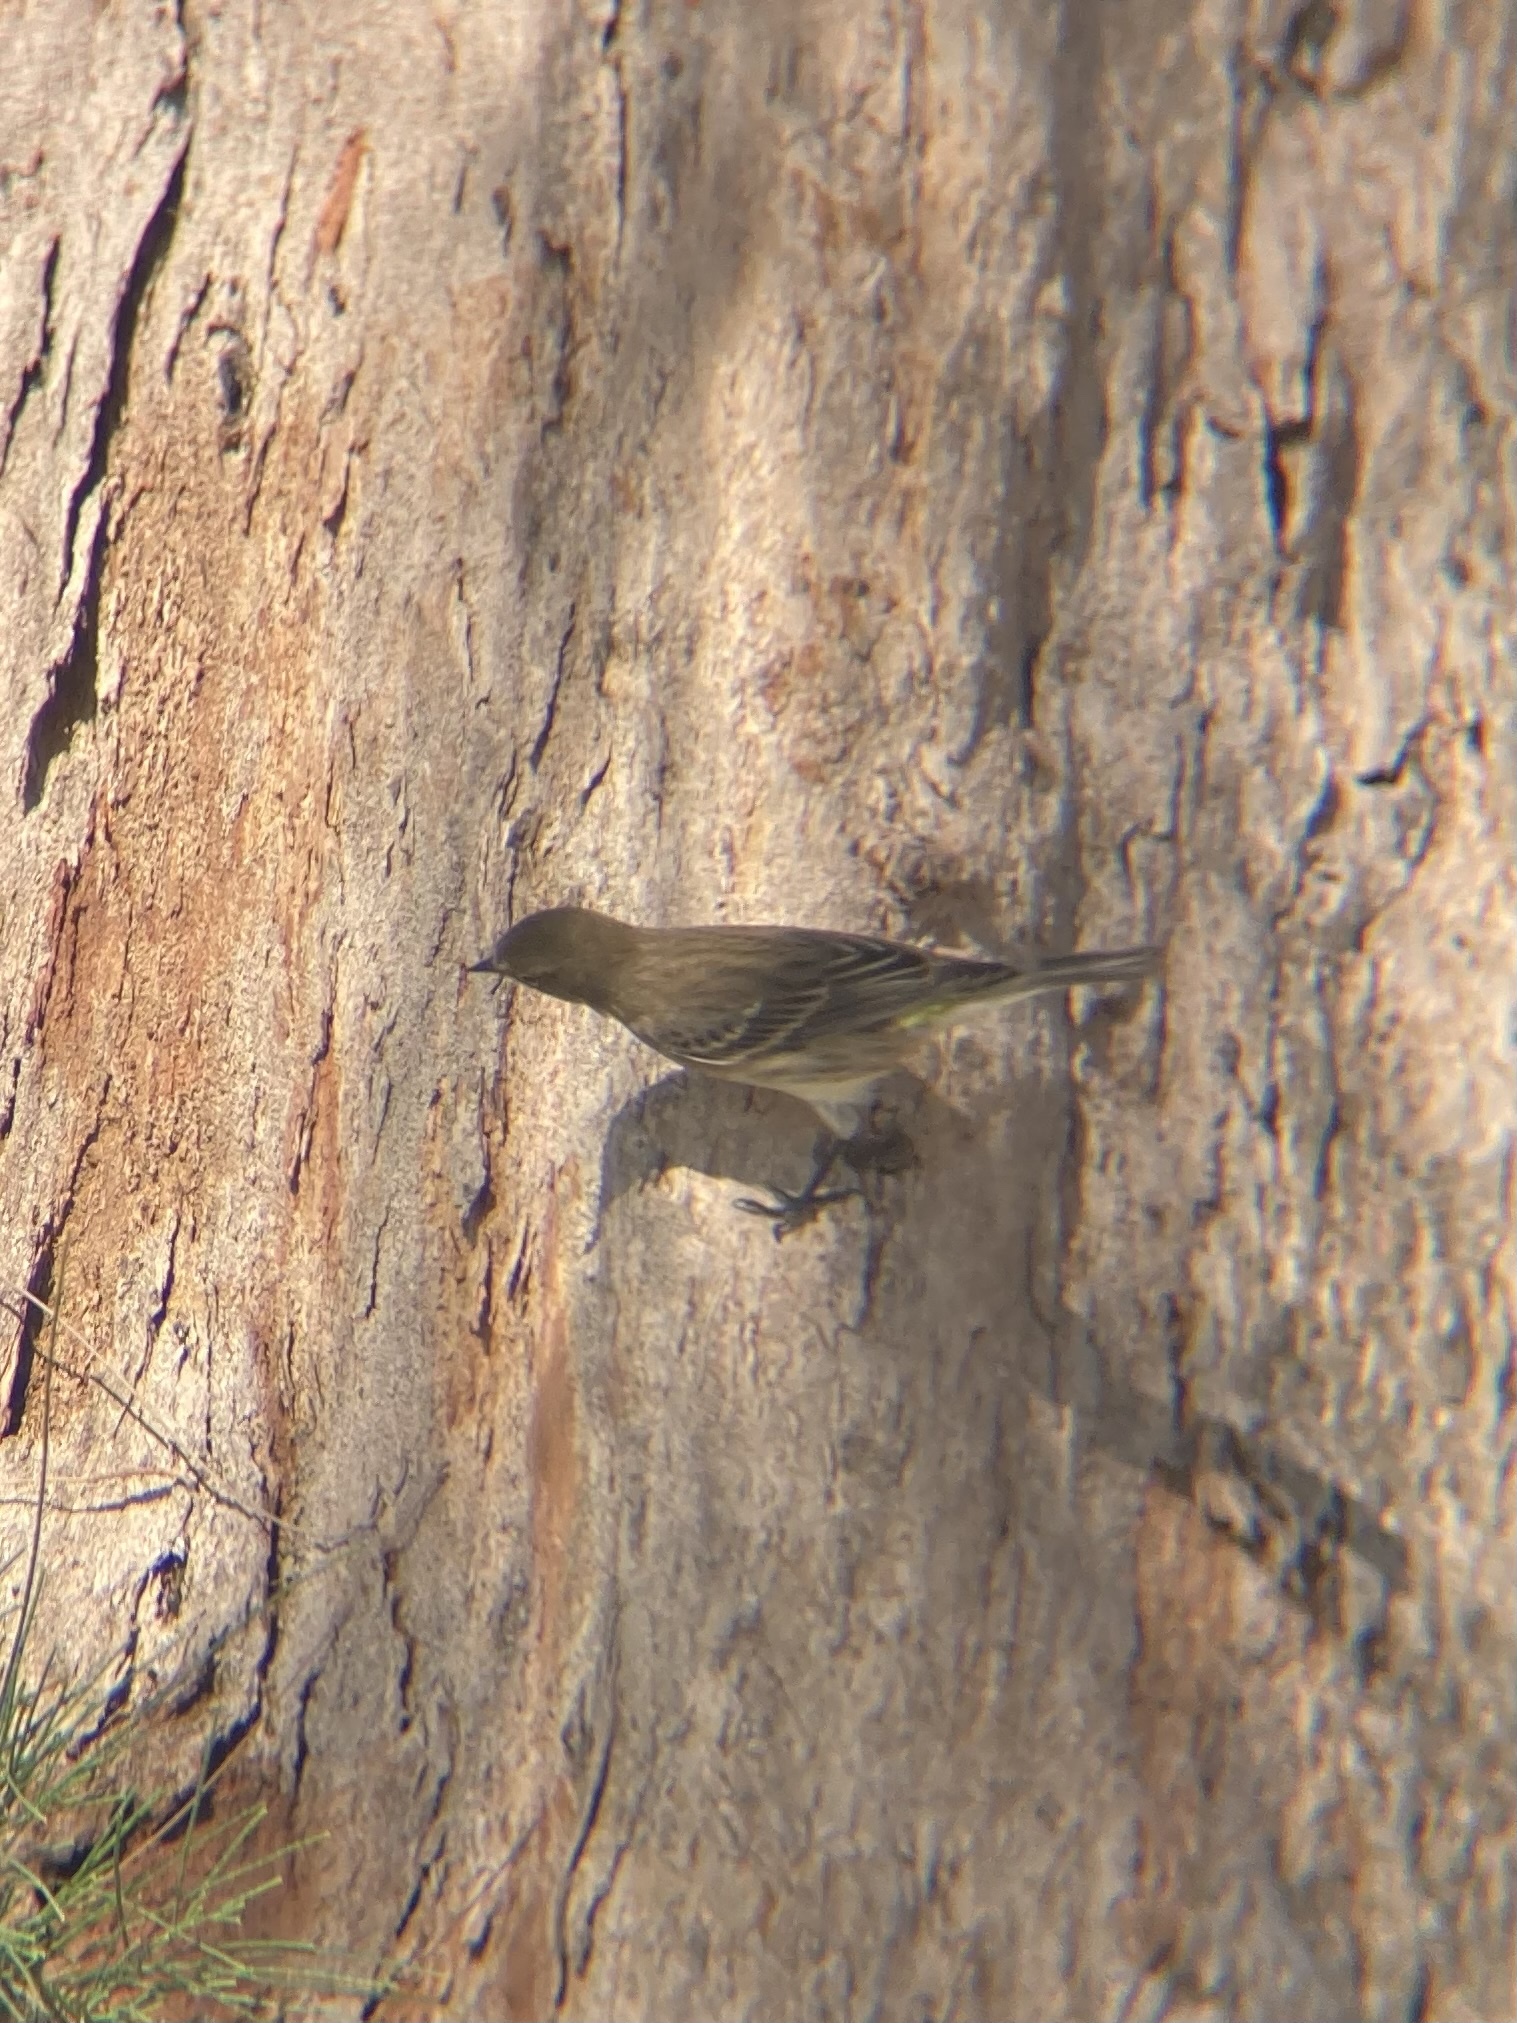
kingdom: Animalia
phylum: Chordata
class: Aves
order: Passeriformes
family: Parulidae
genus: Setophaga
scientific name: Setophaga coronata
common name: Myrtle warbler
